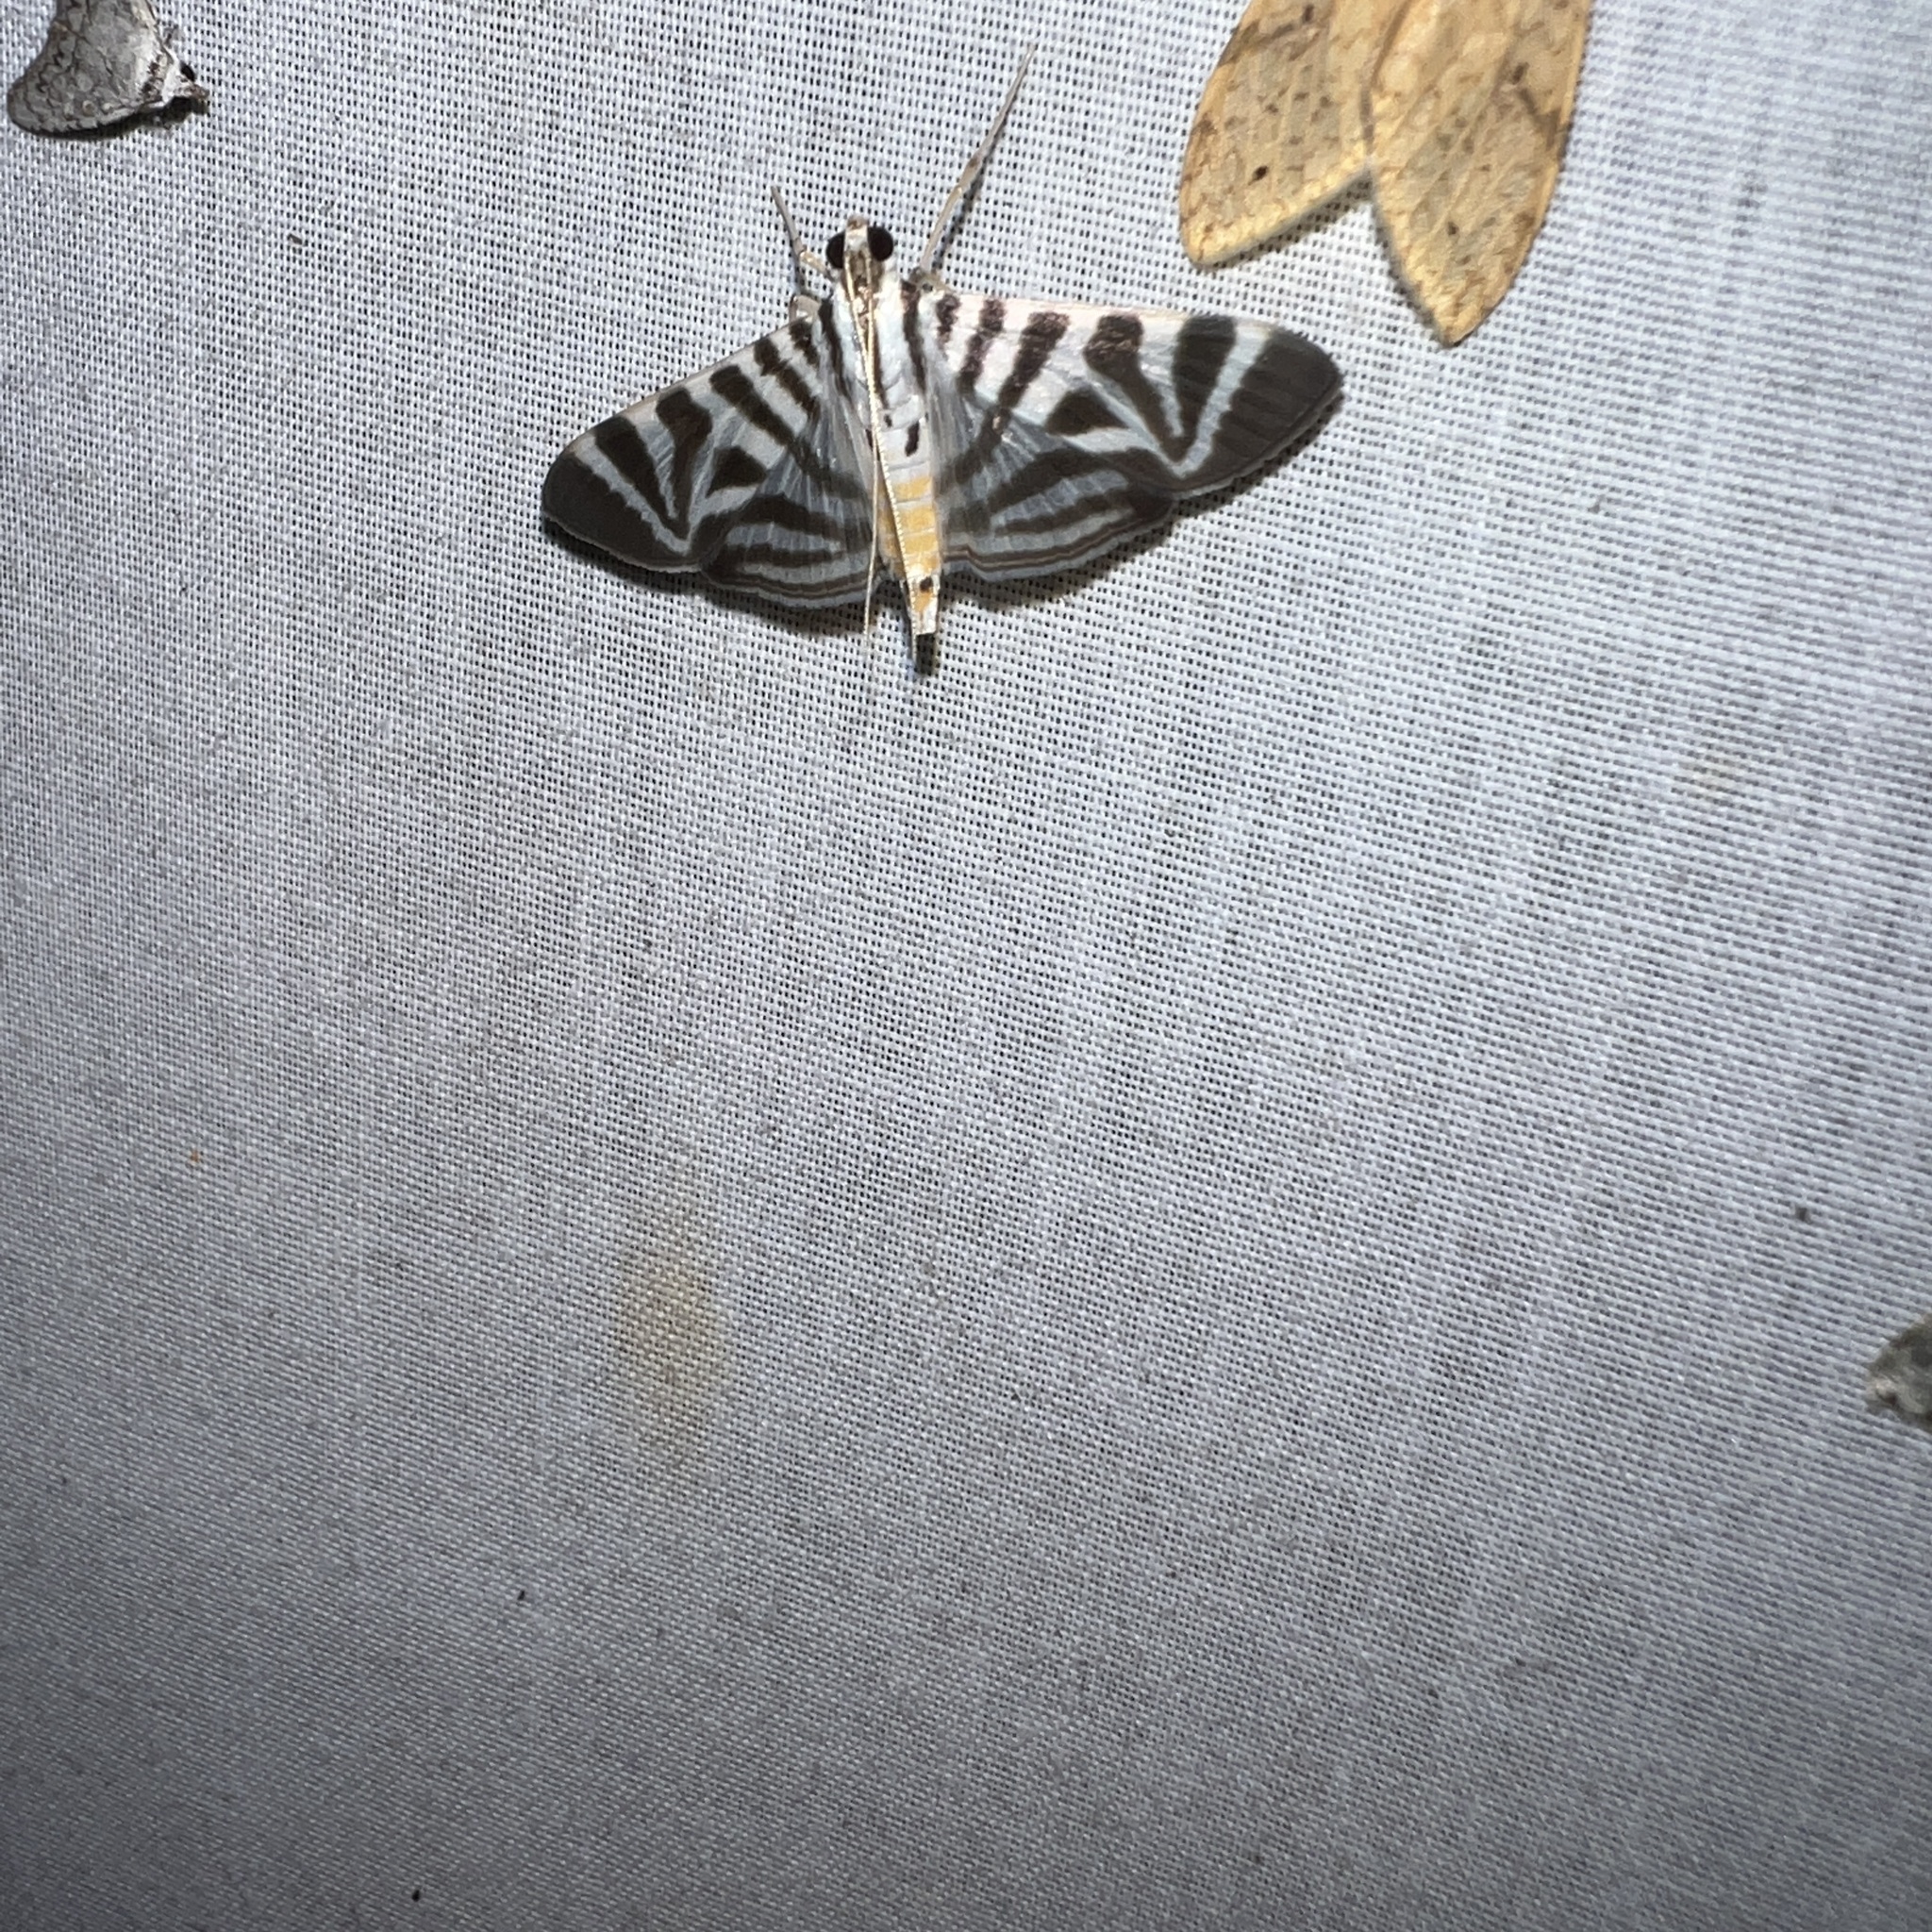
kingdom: Animalia
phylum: Arthropoda
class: Insecta
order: Lepidoptera
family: Crambidae
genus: Zebronia
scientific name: Zebronia Spilomela perspicata
